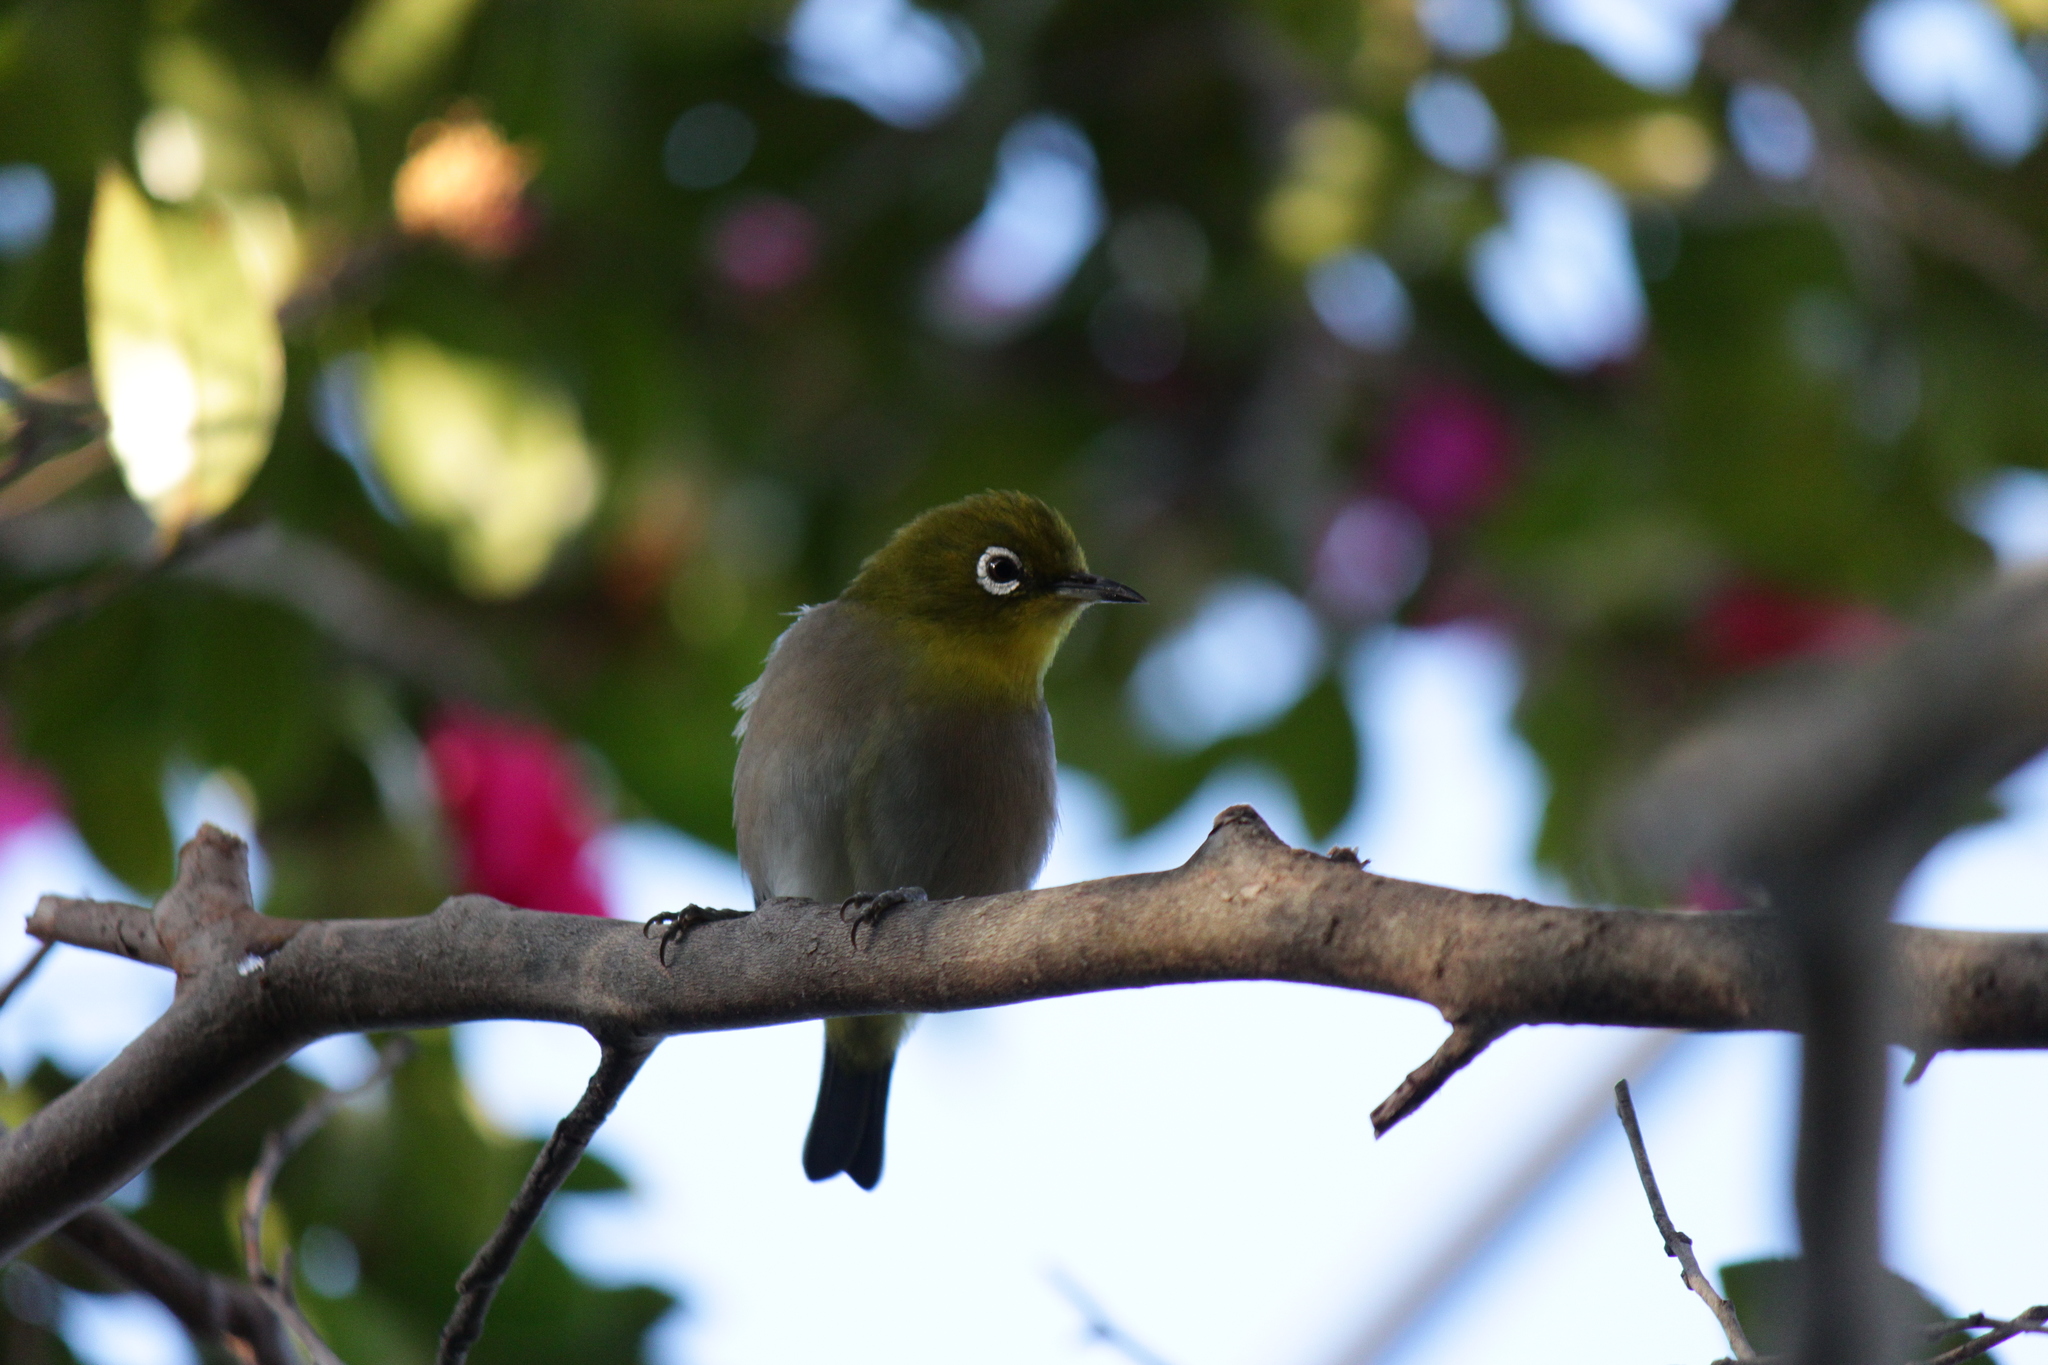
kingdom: Animalia
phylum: Chordata
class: Aves
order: Passeriformes
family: Zosteropidae
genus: Zosterops
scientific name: Zosterops japonicus
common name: Japanese white-eye
